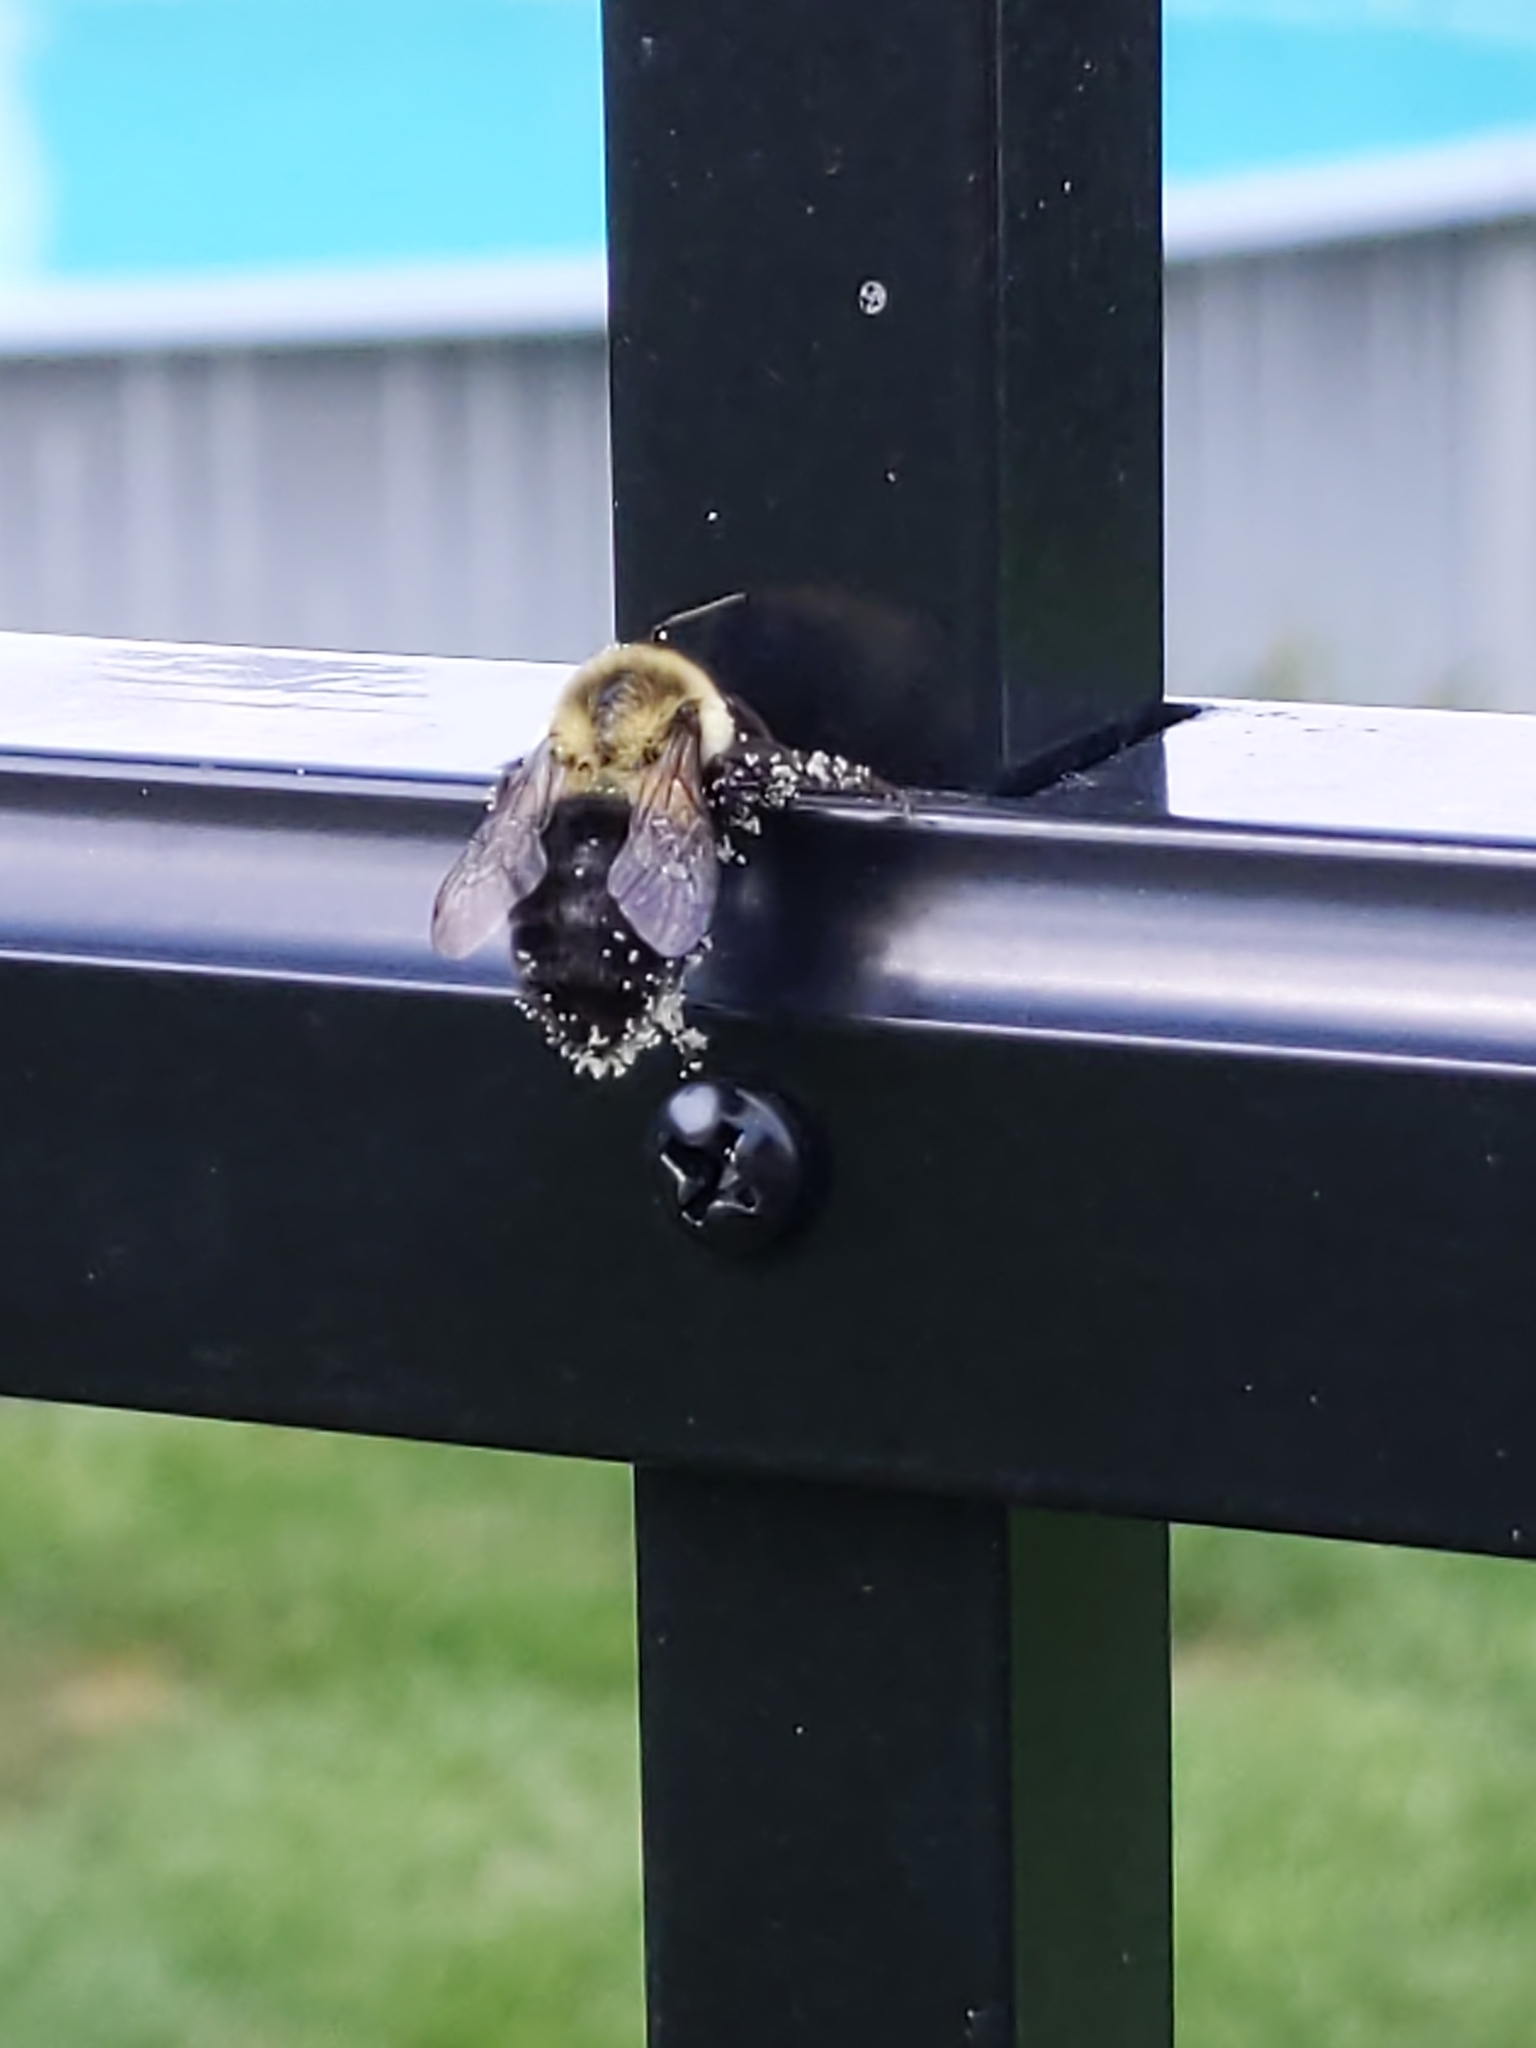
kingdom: Animalia
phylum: Arthropoda
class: Insecta
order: Hymenoptera
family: Apidae
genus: Bombus
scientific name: Bombus impatiens
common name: Common eastern bumble bee
